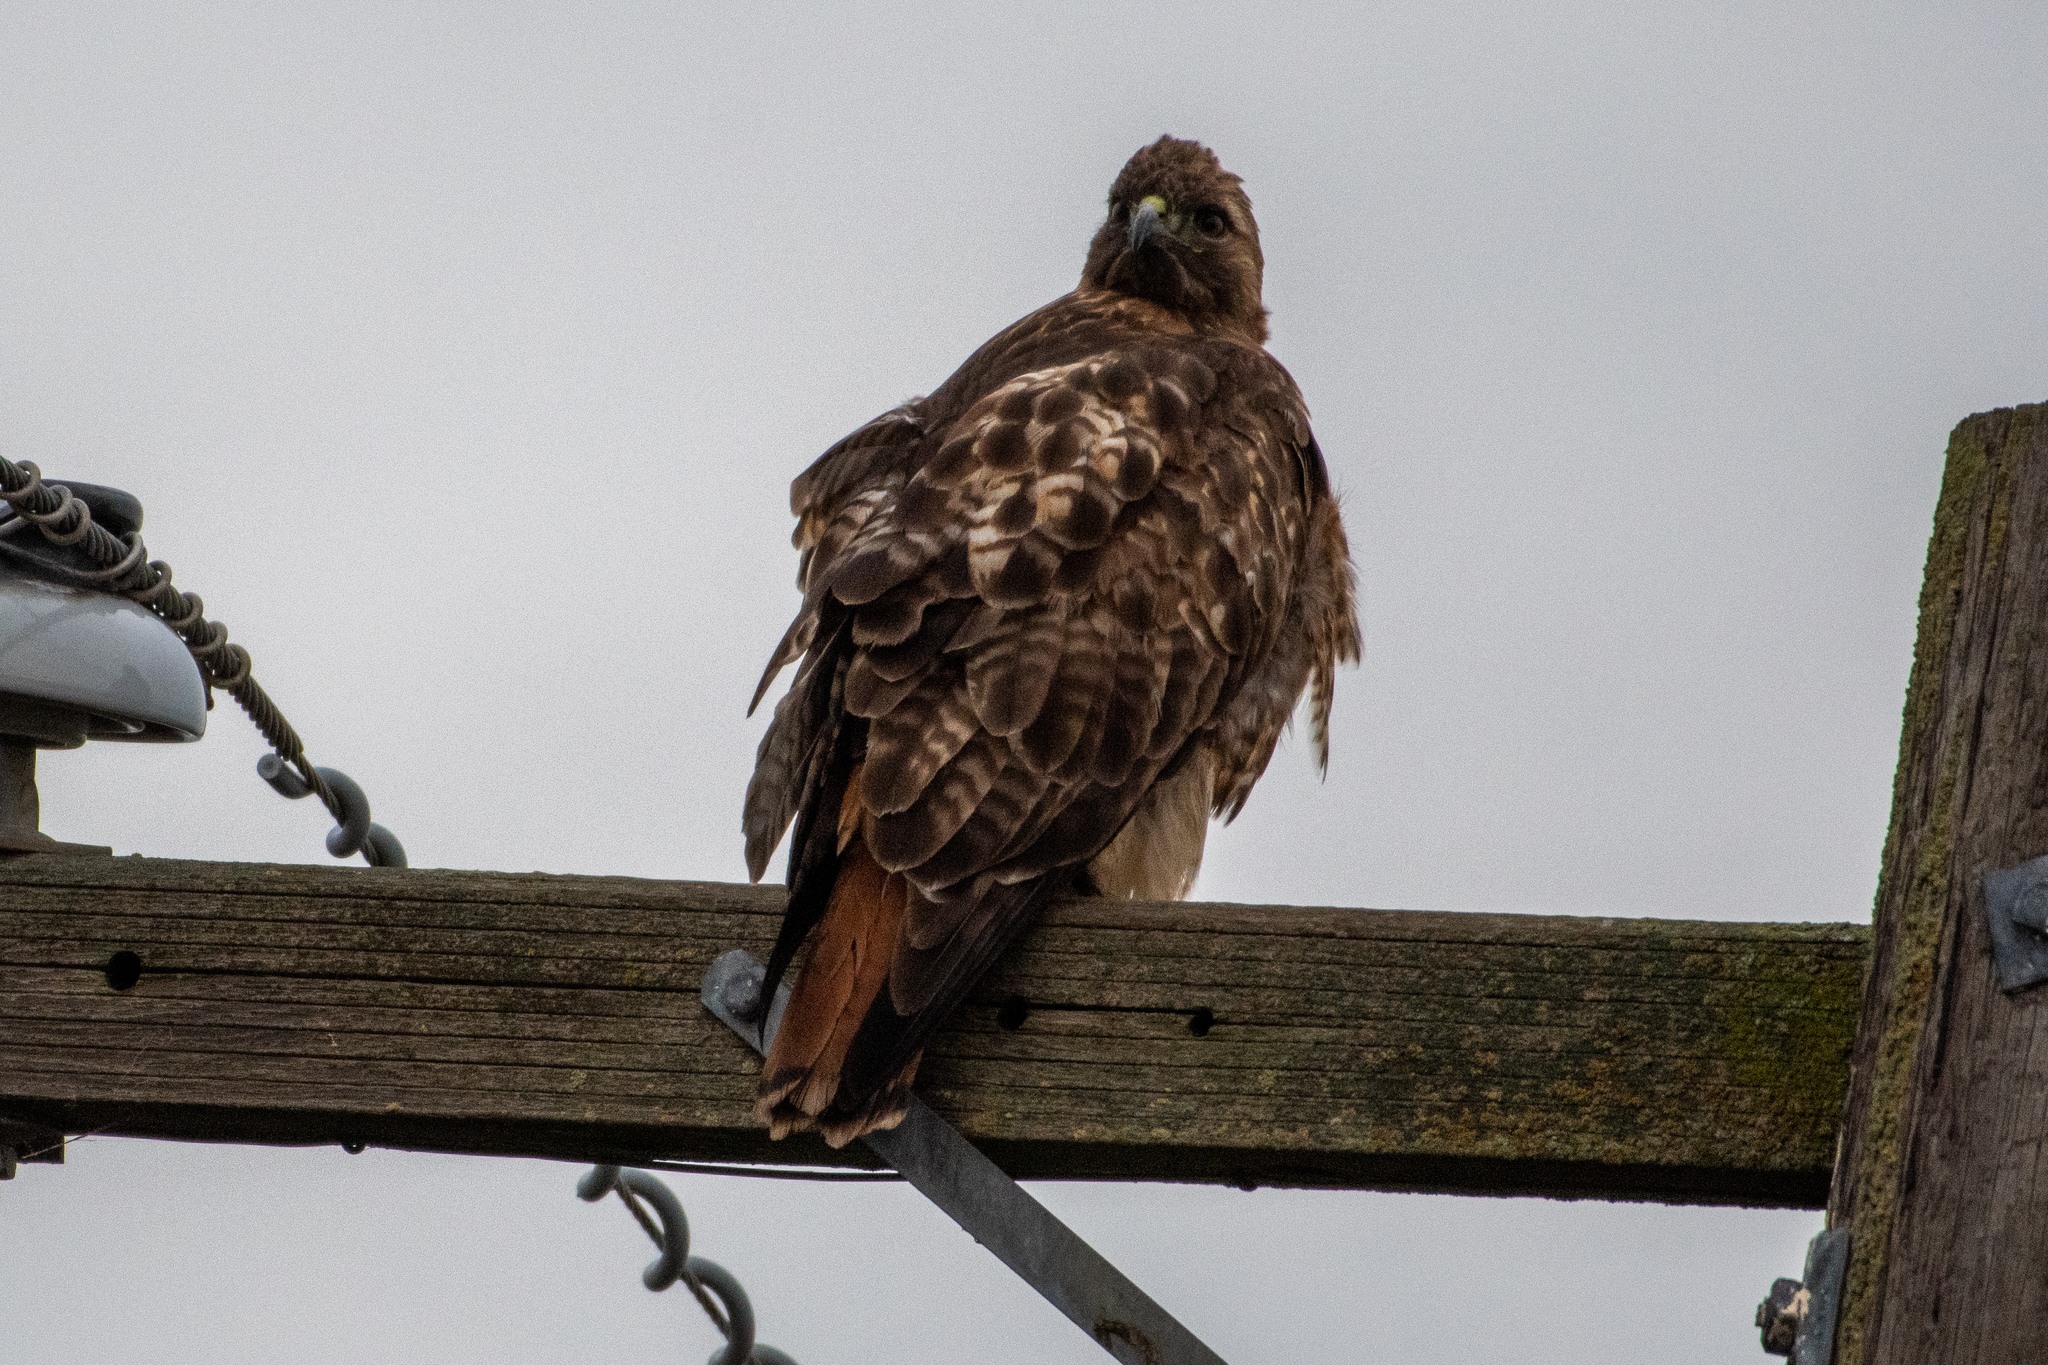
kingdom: Animalia
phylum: Chordata
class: Aves
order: Accipitriformes
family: Accipitridae
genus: Buteo
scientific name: Buteo jamaicensis
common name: Red-tailed hawk
